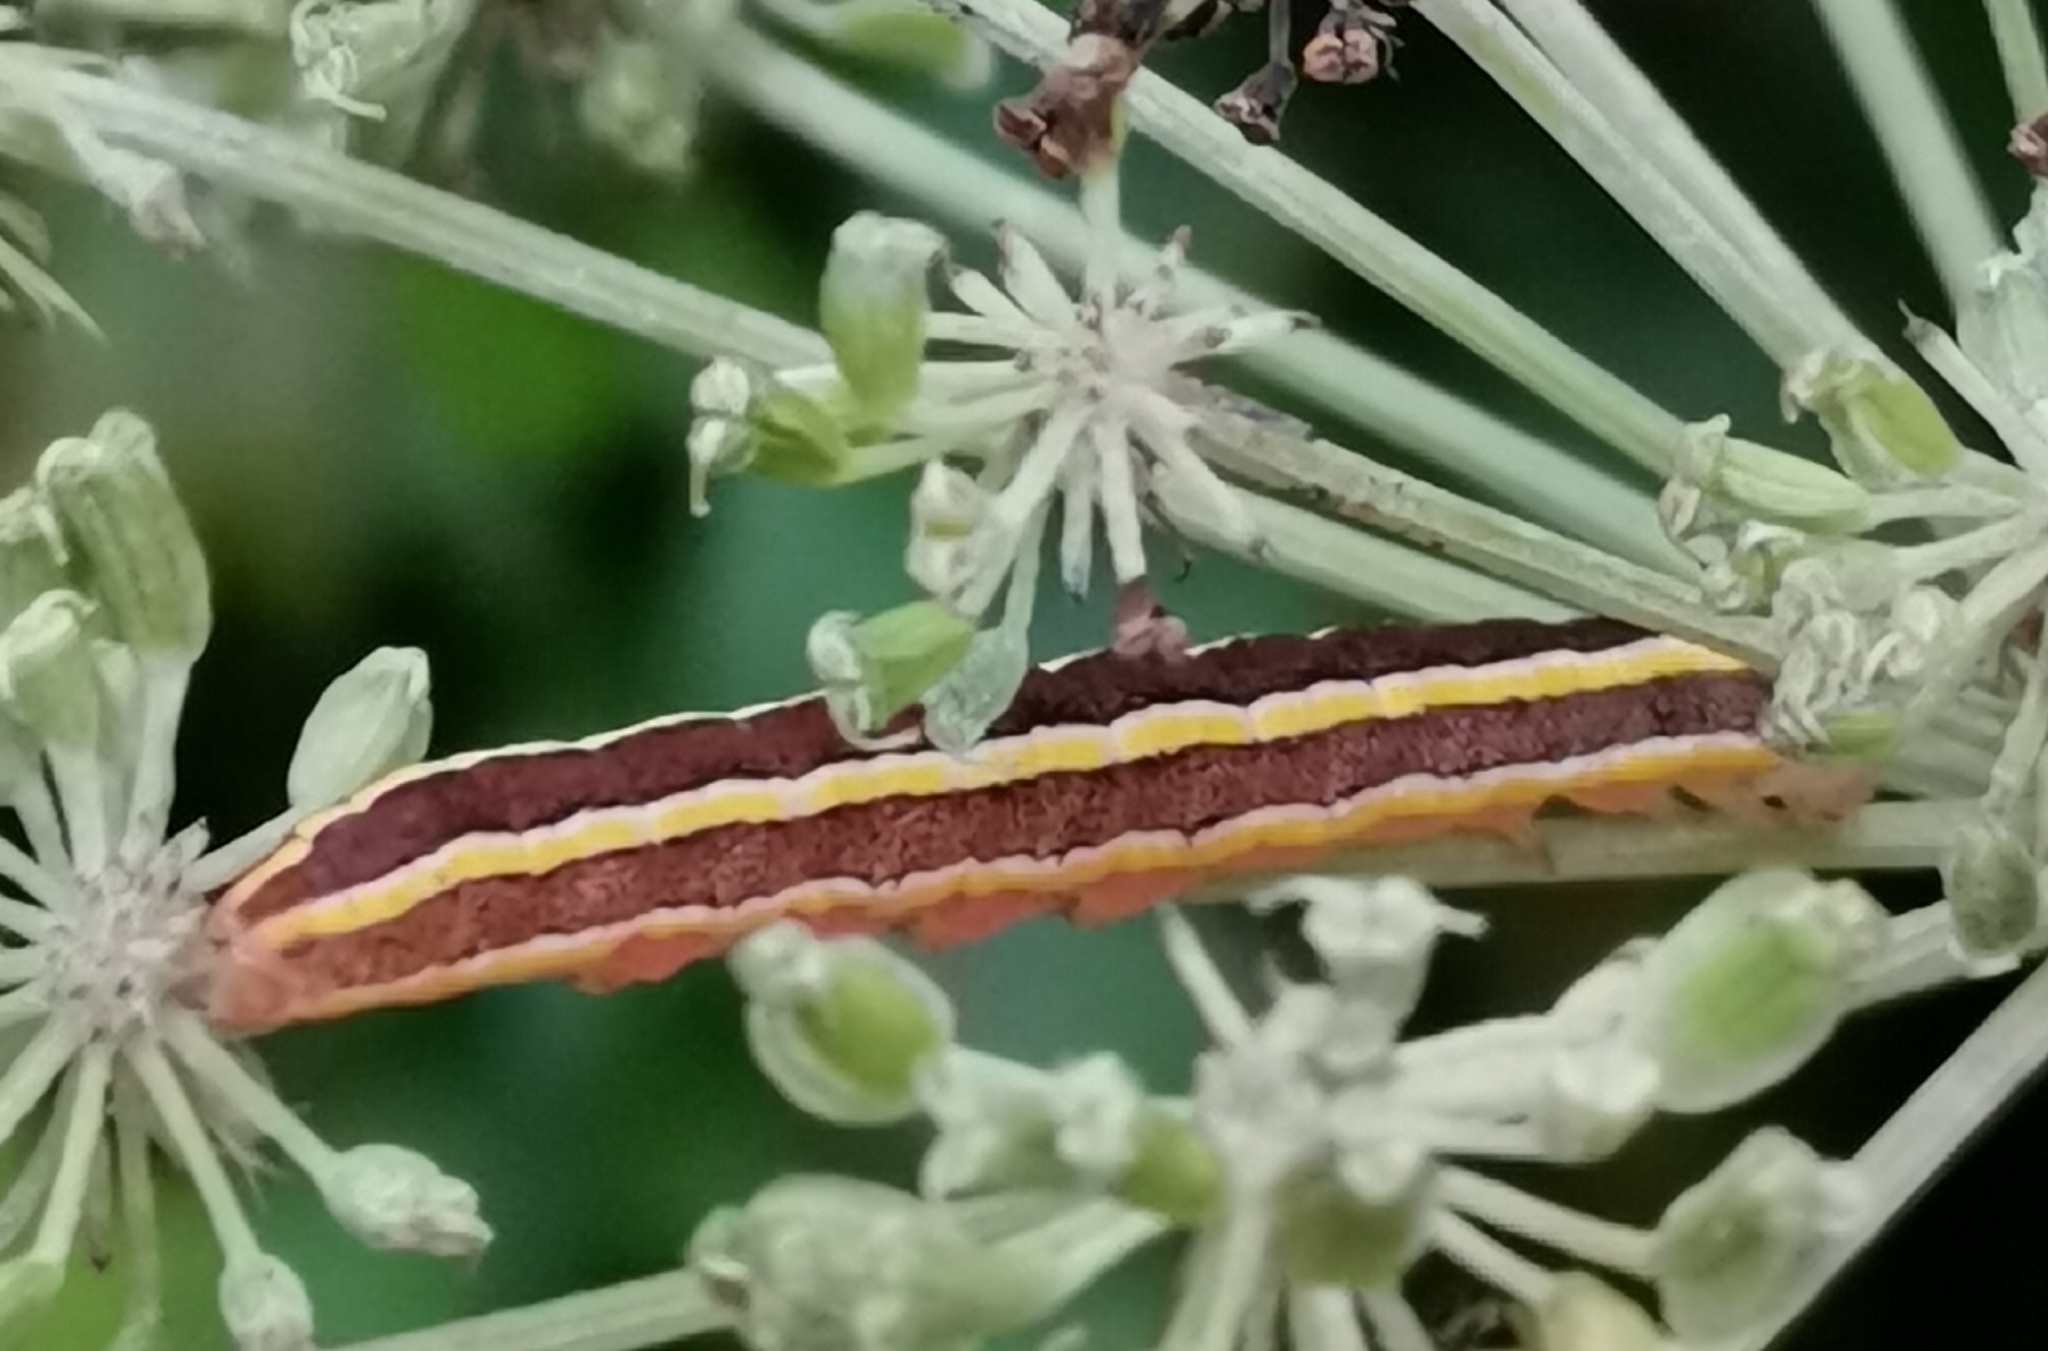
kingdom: Animalia
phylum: Arthropoda
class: Insecta
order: Lepidoptera
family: Noctuidae
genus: Ceramica
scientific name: Ceramica pisi
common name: Broom moth
